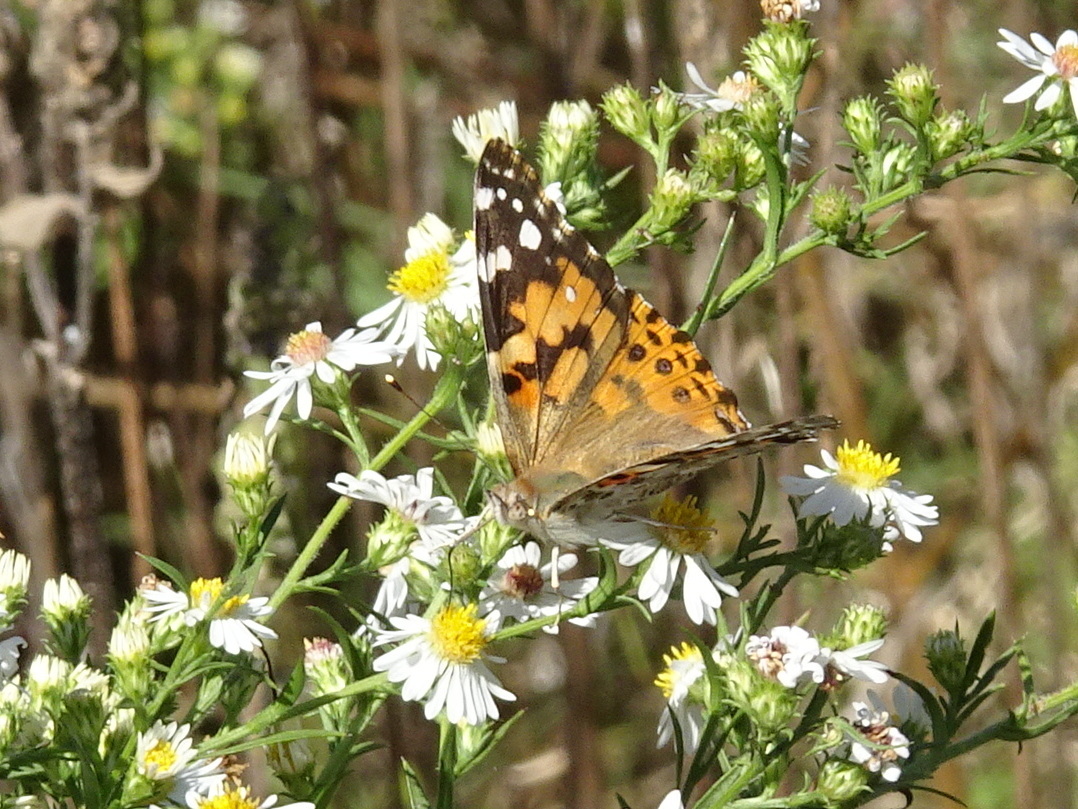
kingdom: Animalia
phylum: Arthropoda
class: Insecta
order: Lepidoptera
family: Nymphalidae
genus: Vanessa
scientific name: Vanessa cardui
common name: Painted lady
